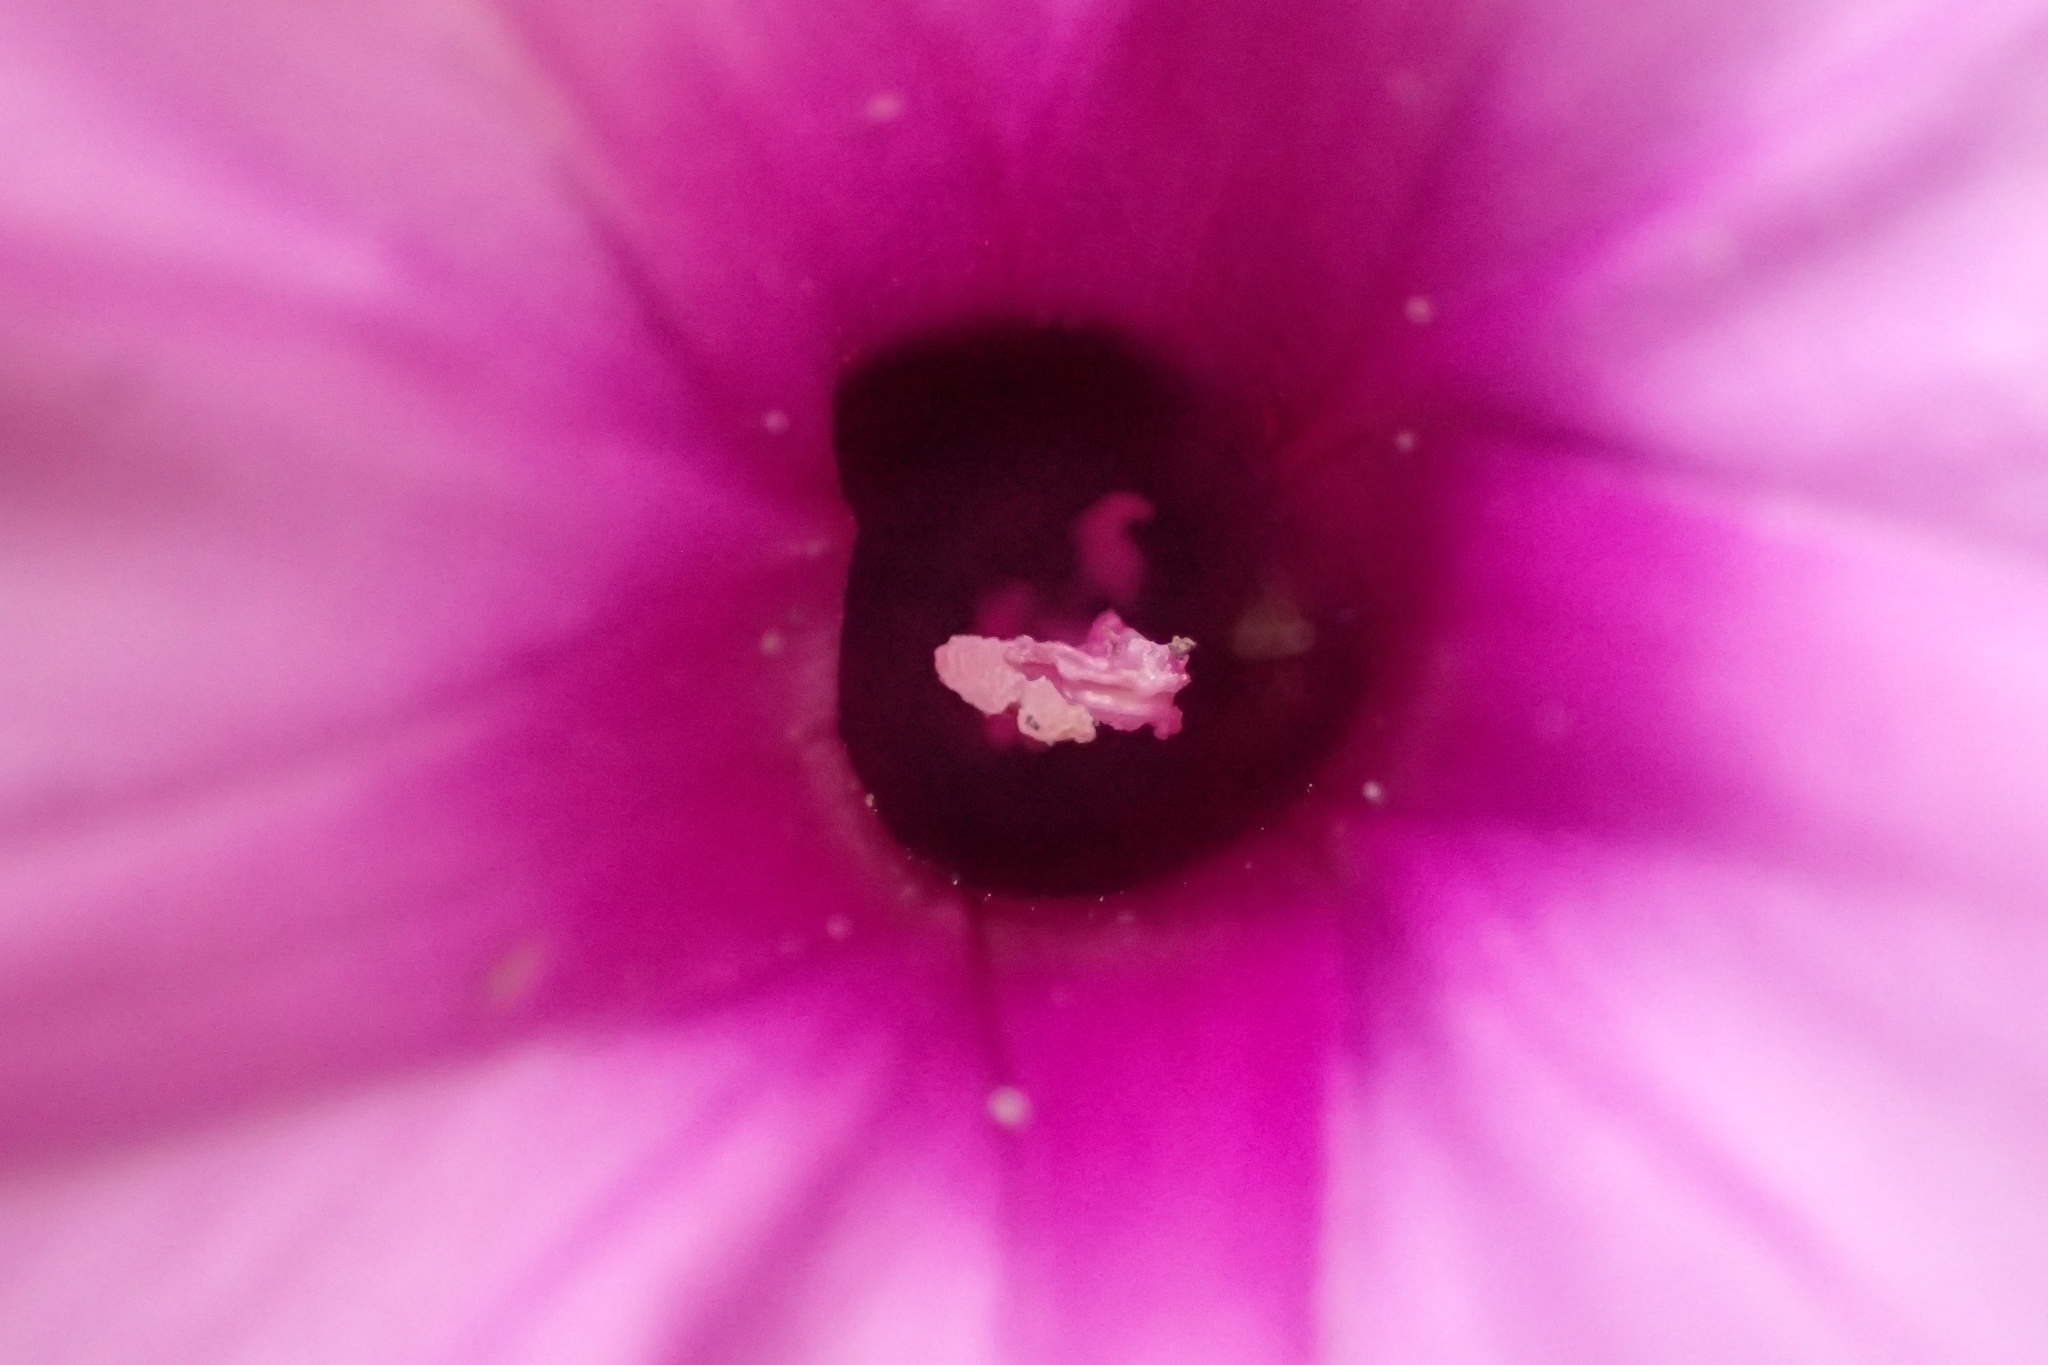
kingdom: Plantae
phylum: Tracheophyta
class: Magnoliopsida
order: Solanales
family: Convolvulaceae
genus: Ipomoea
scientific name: Ipomoea cairica
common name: Mile a minute vine
